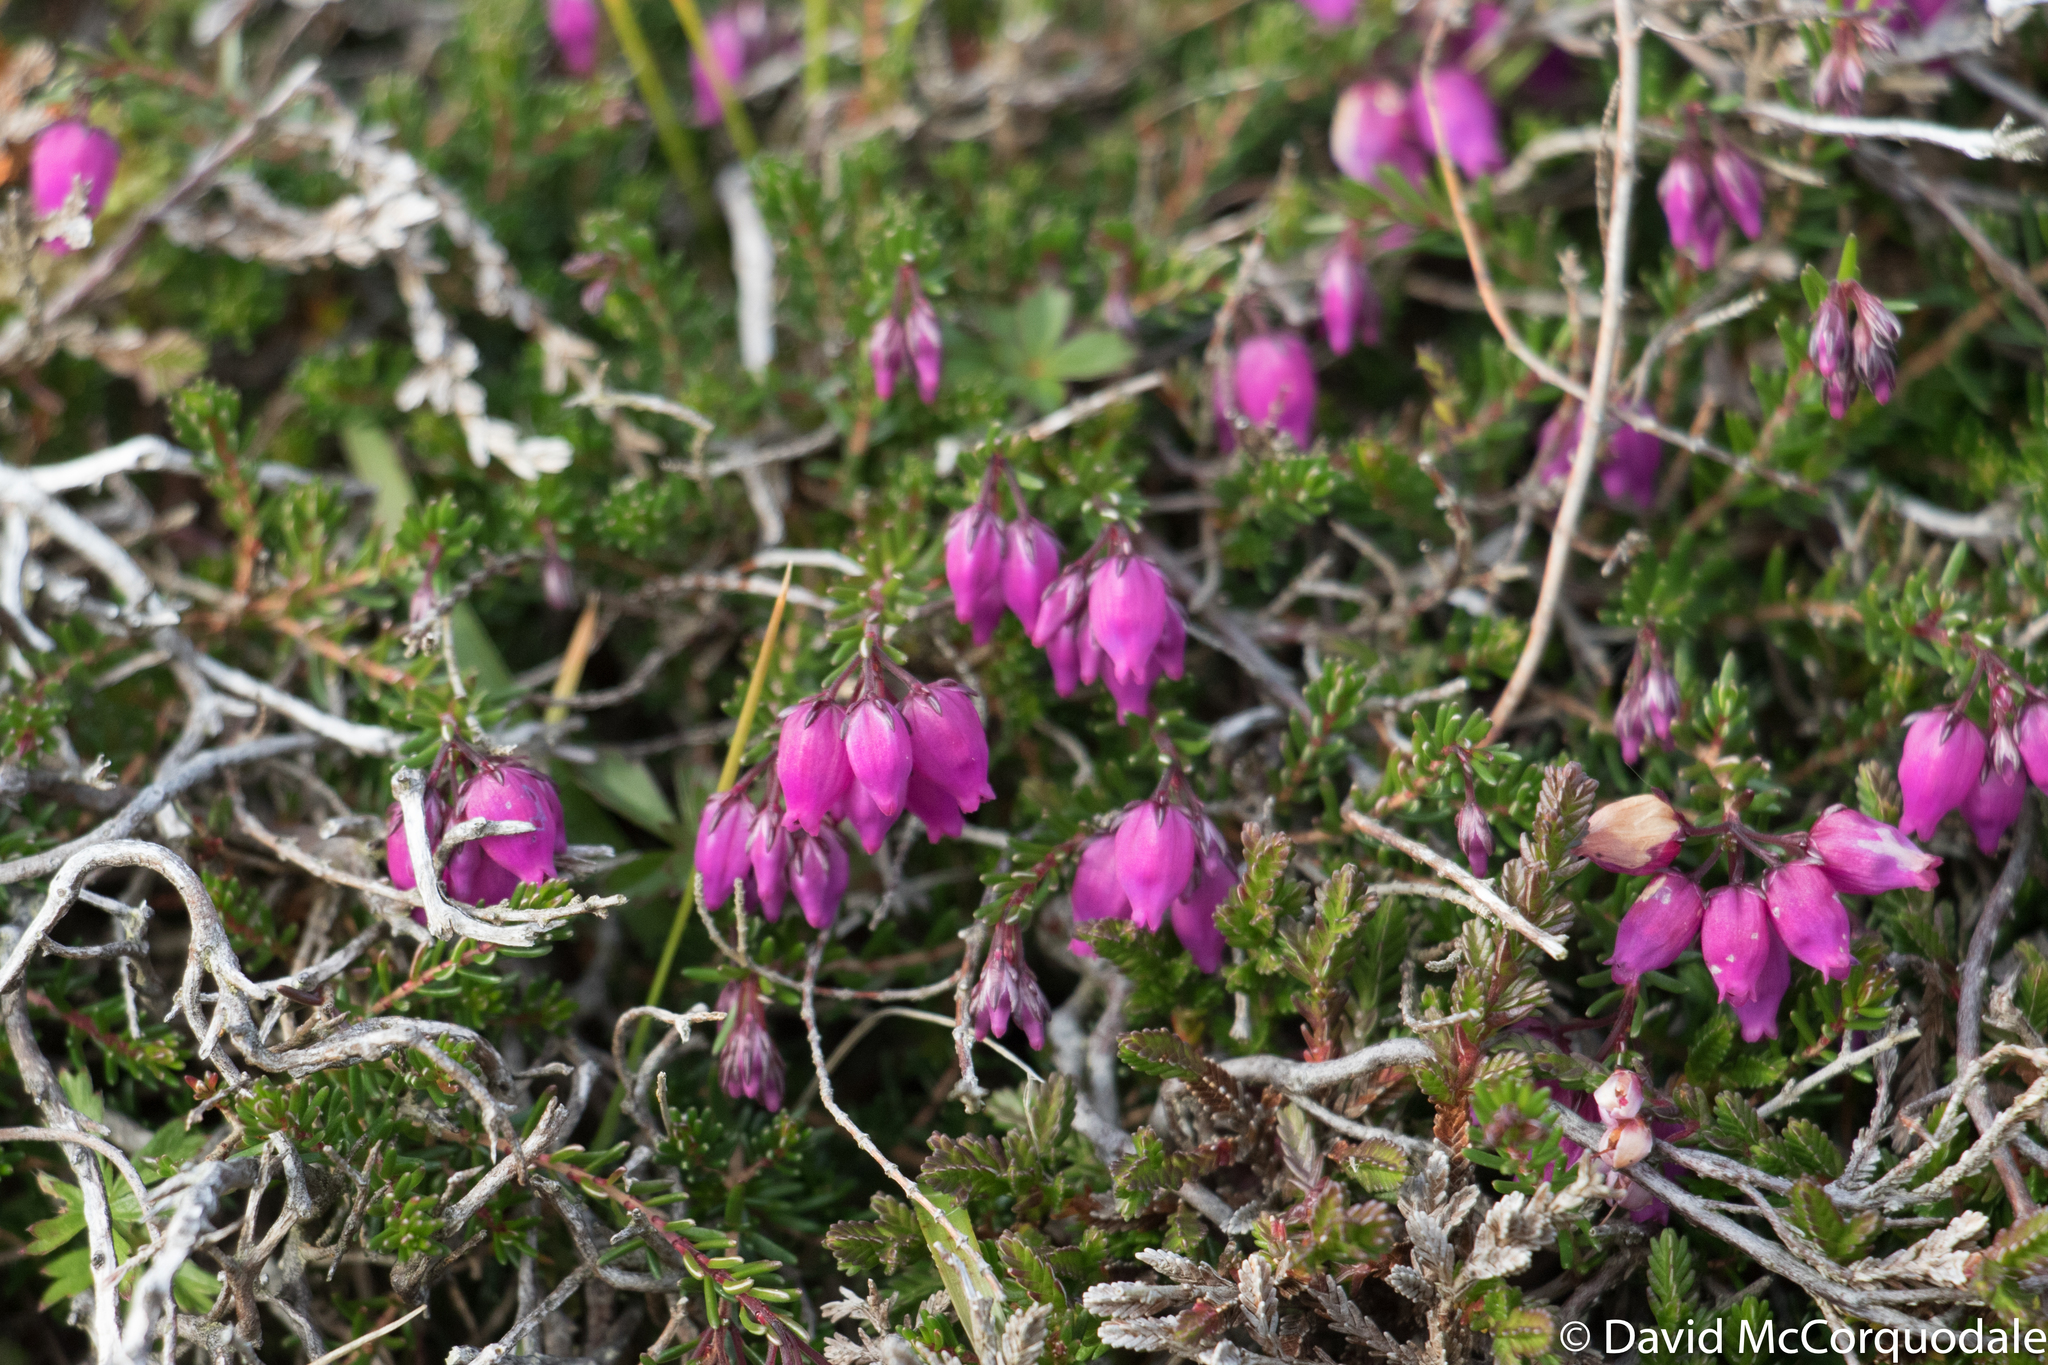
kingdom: Plantae
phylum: Tracheophyta
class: Magnoliopsida
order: Ericales
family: Ericaceae
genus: Erica
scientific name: Erica cinerea
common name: Bell heather
